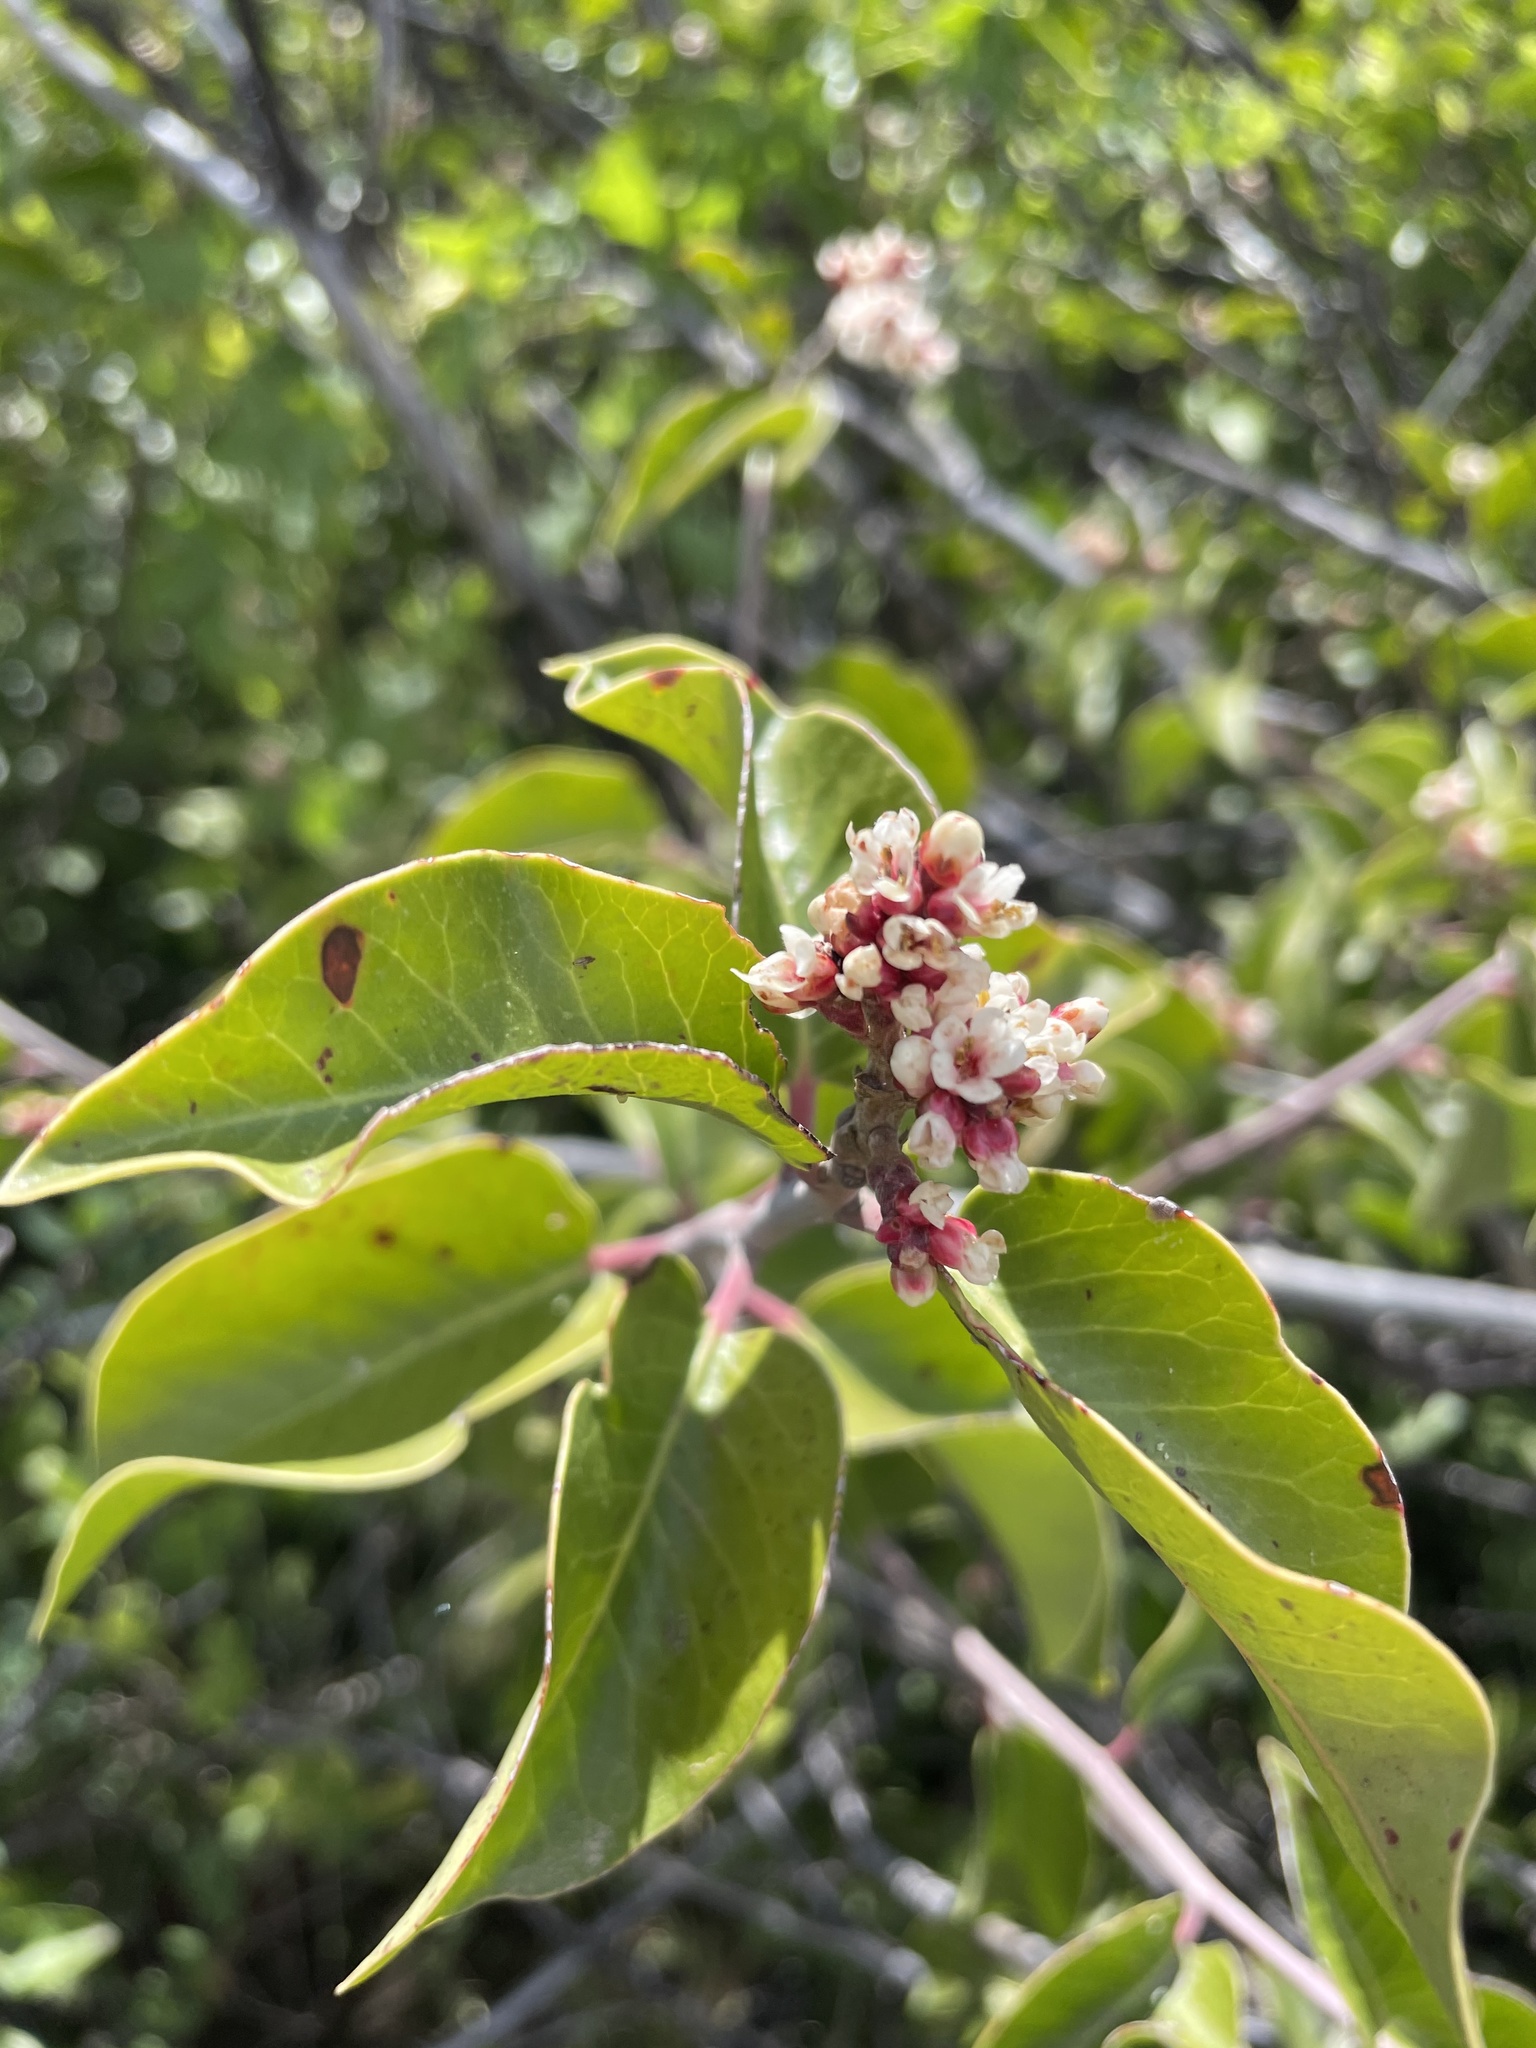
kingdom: Plantae
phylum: Tracheophyta
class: Magnoliopsida
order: Sapindales
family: Anacardiaceae
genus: Rhus
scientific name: Rhus ovata
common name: Sugar sumac
